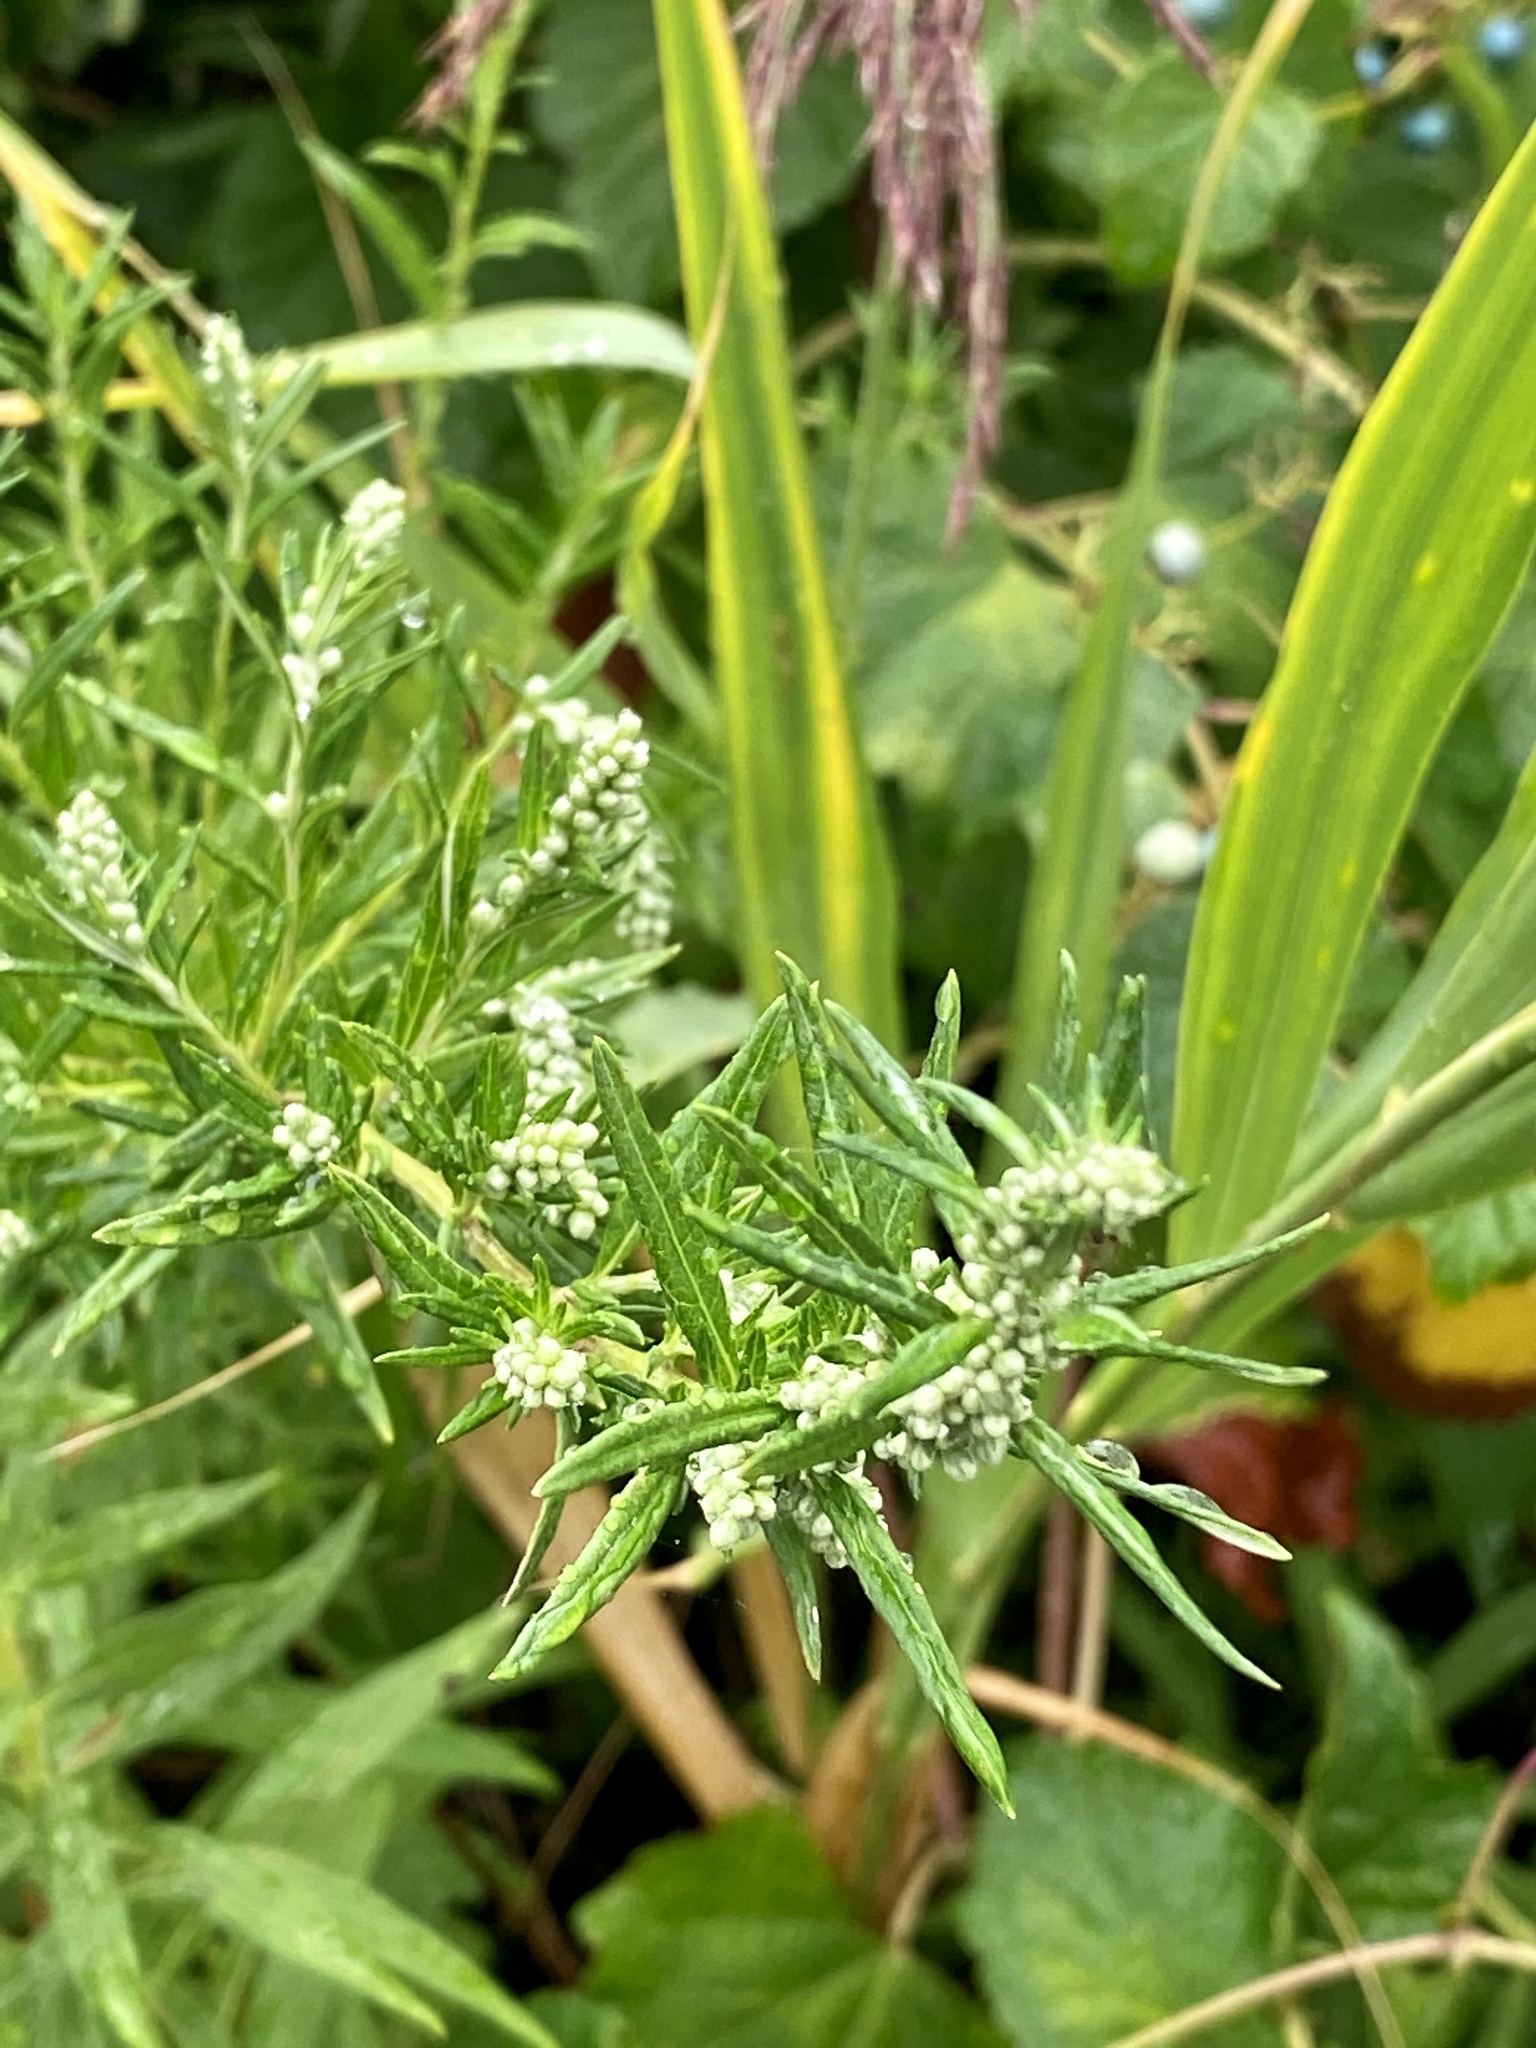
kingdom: Plantae
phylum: Tracheophyta
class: Magnoliopsida
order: Asterales
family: Asteraceae
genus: Artemisia
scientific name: Artemisia vulgaris
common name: Mugwort
